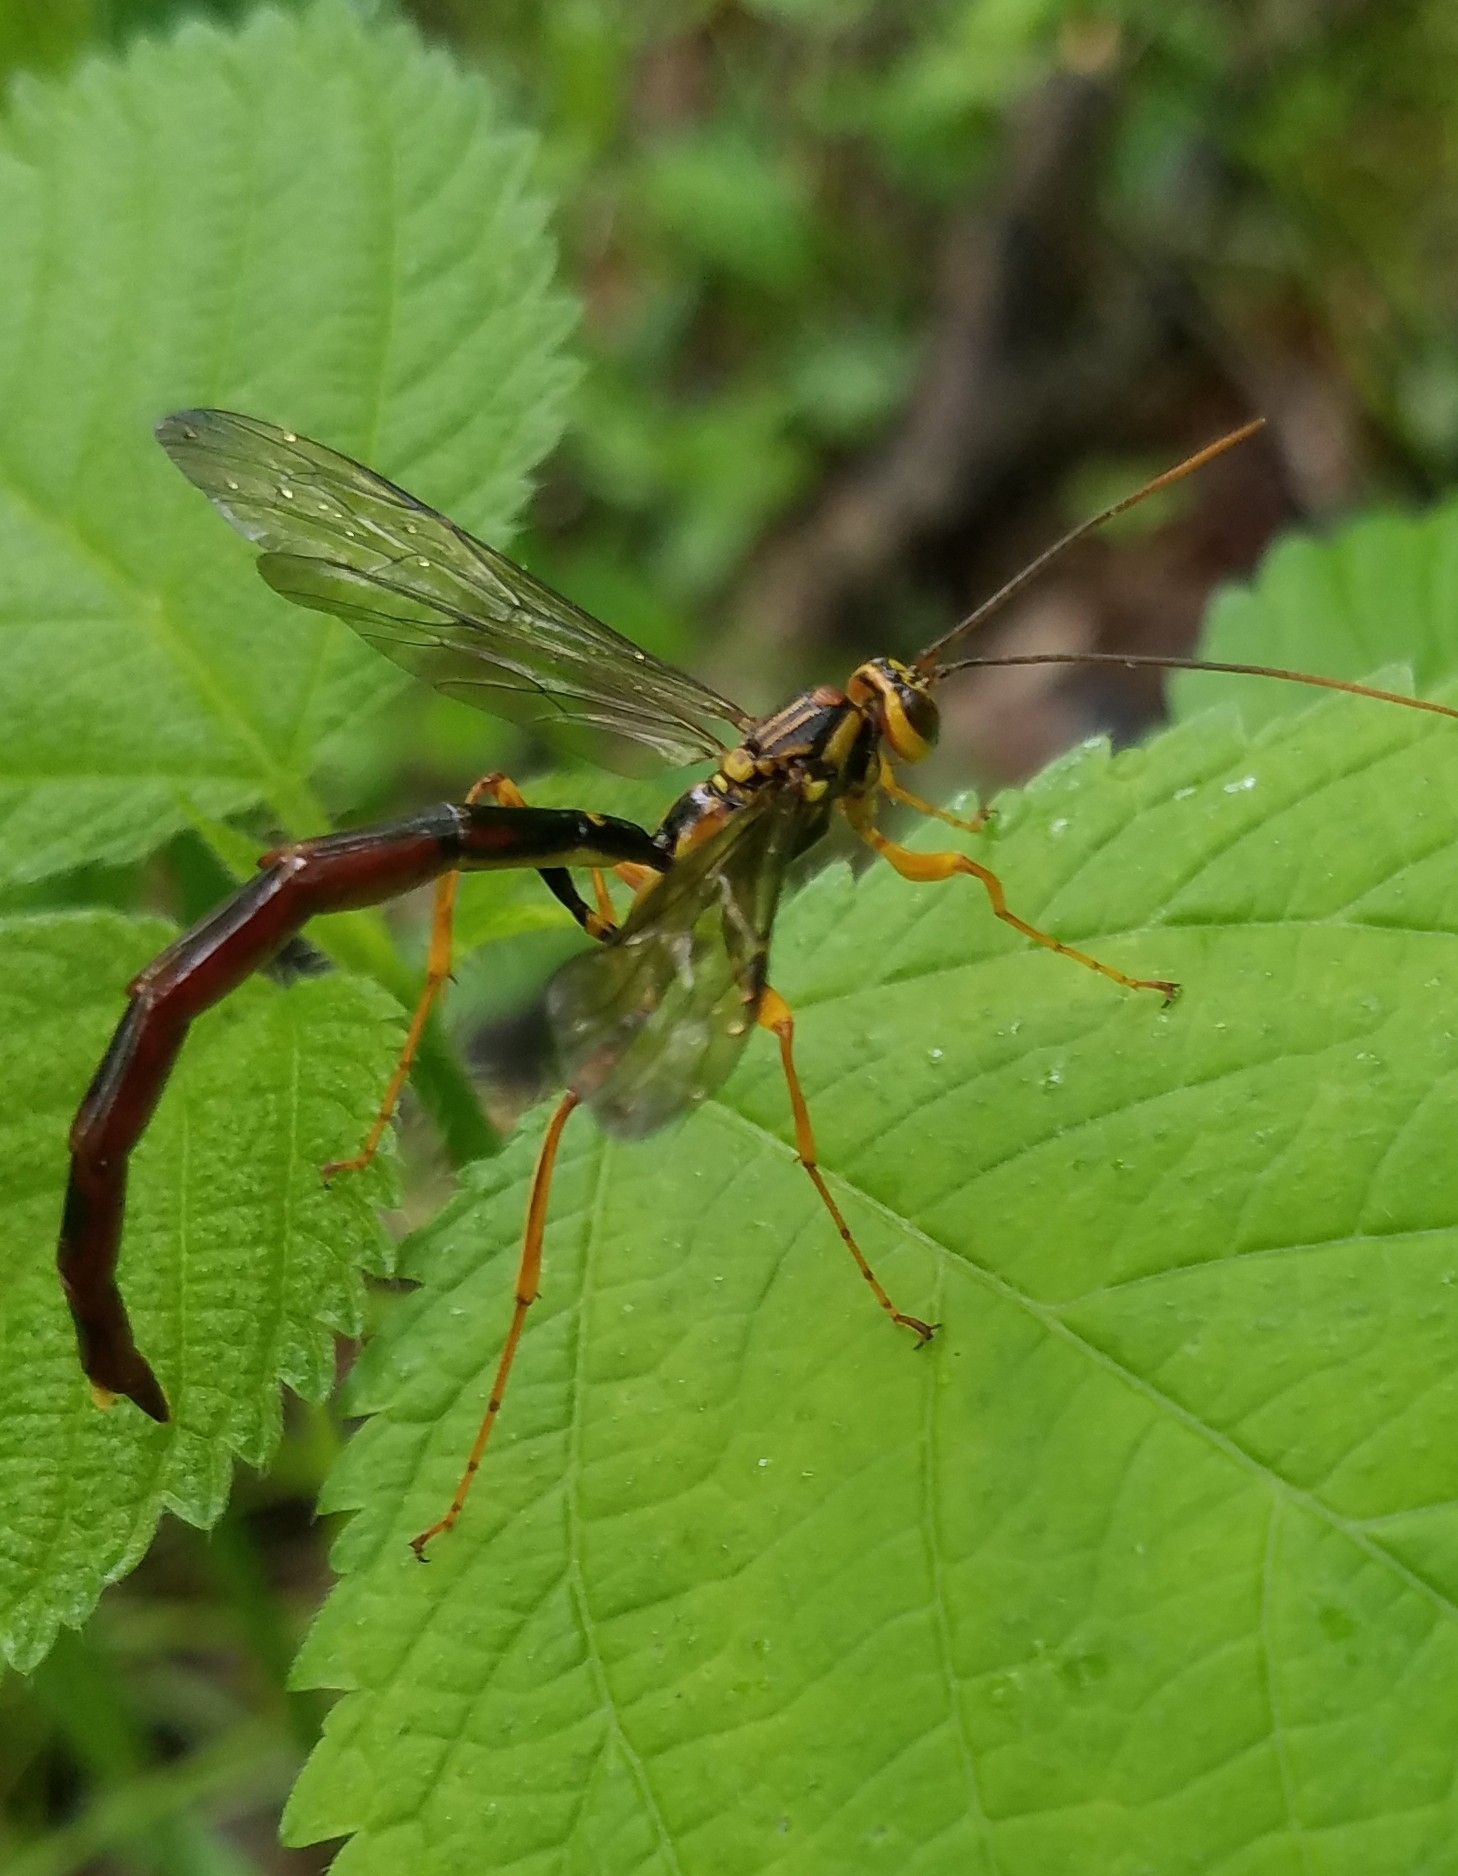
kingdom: Animalia
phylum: Arthropoda
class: Insecta
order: Hymenoptera
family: Ichneumonidae
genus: Megarhyssa
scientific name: Megarhyssa atrata
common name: Black giant ichneumonid wasp
